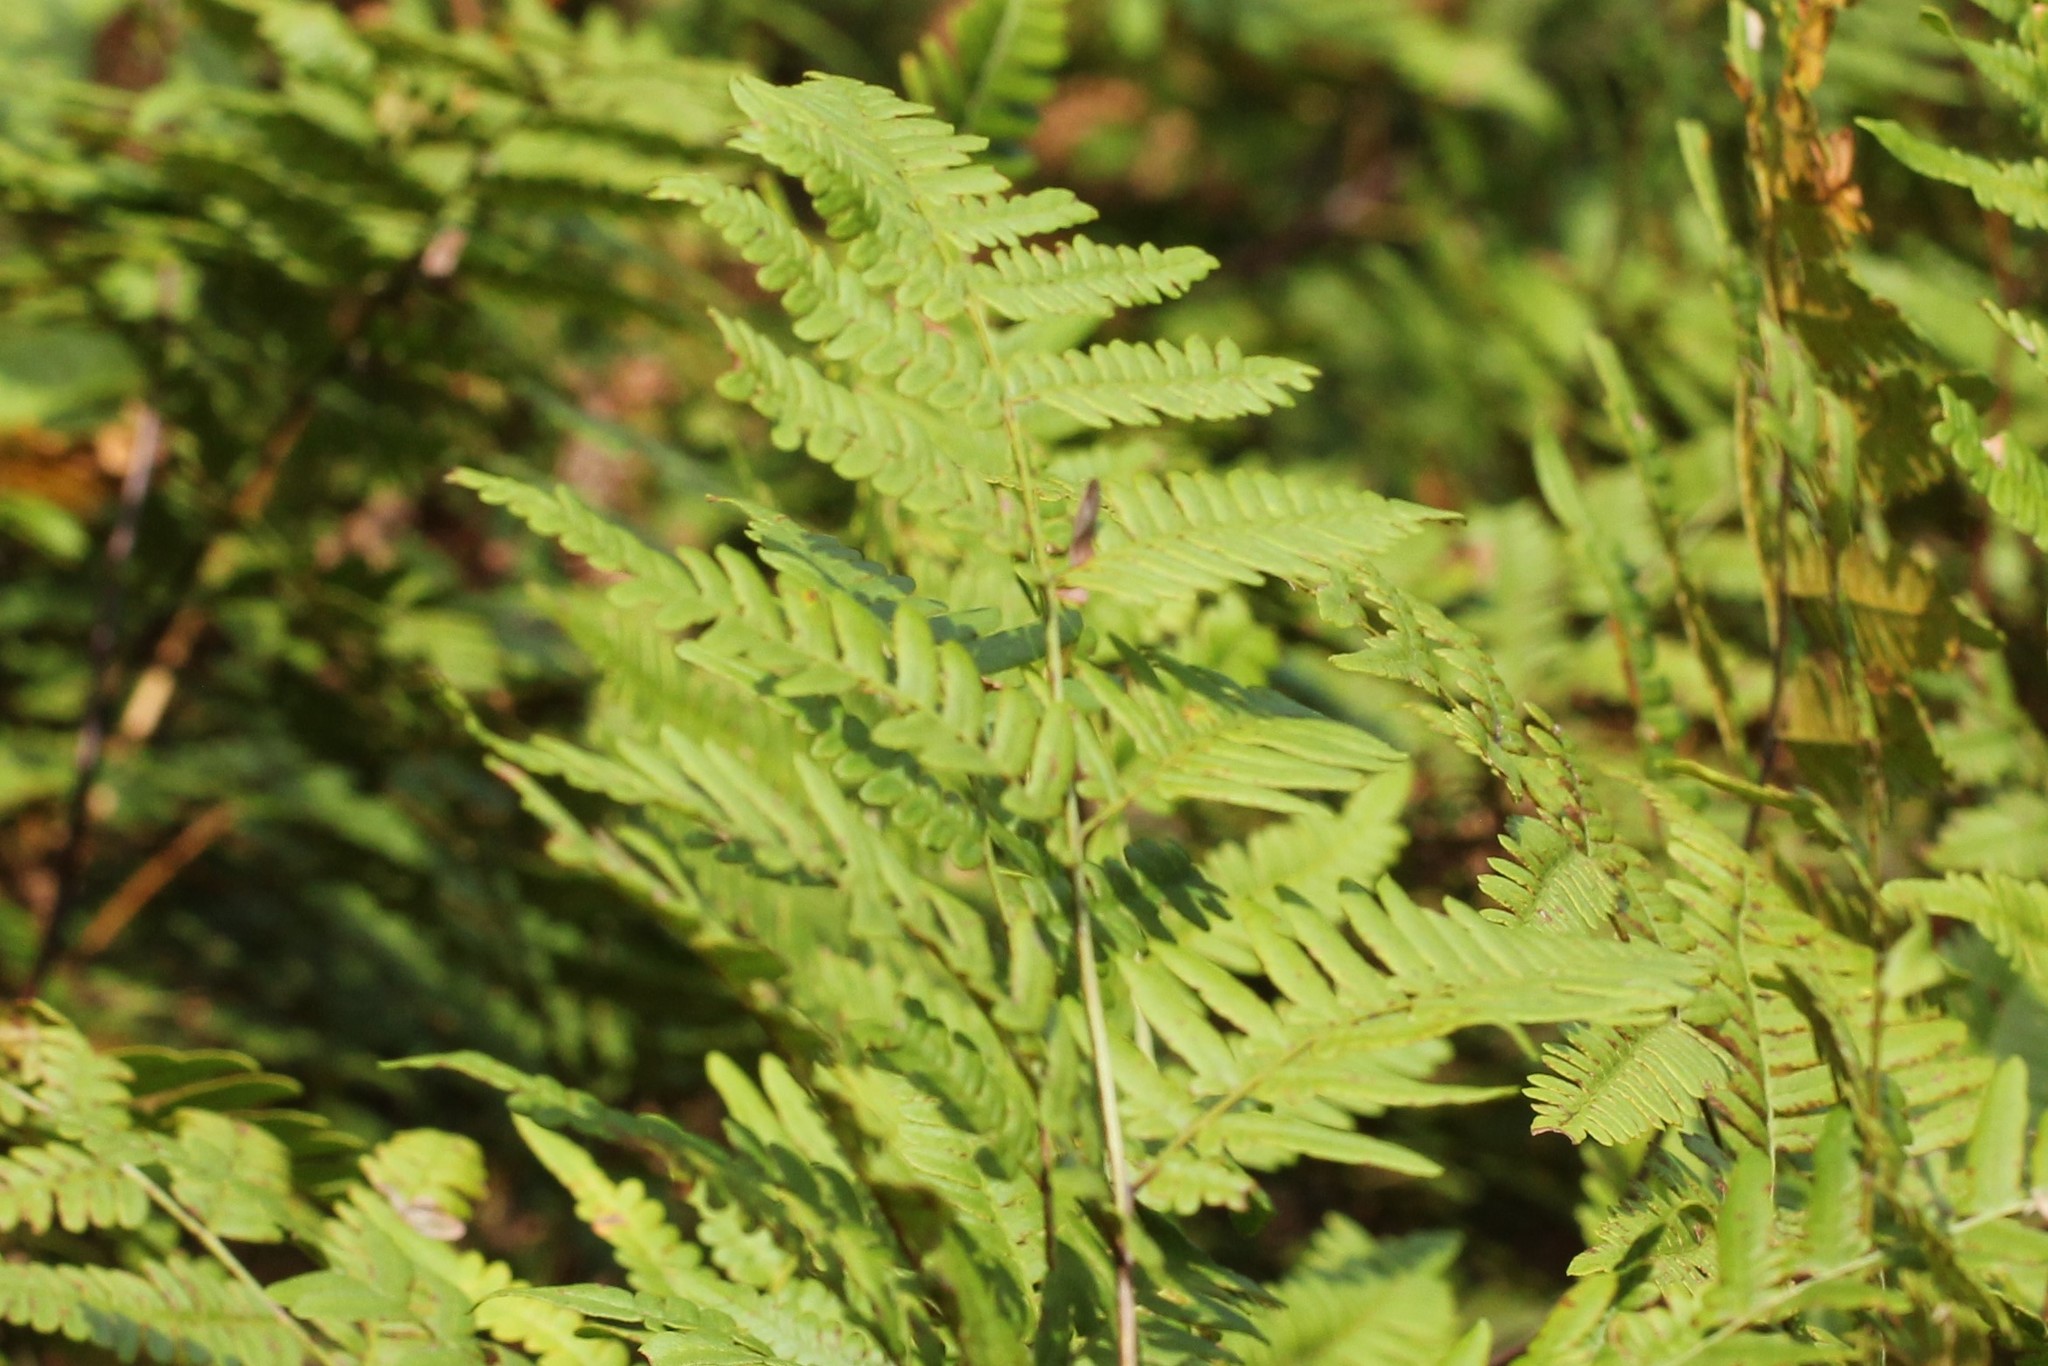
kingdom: Plantae
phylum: Tracheophyta
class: Polypodiopsida
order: Polypodiales
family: Dennstaedtiaceae
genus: Pteridium
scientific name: Pteridium aquilinum
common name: Bracken
